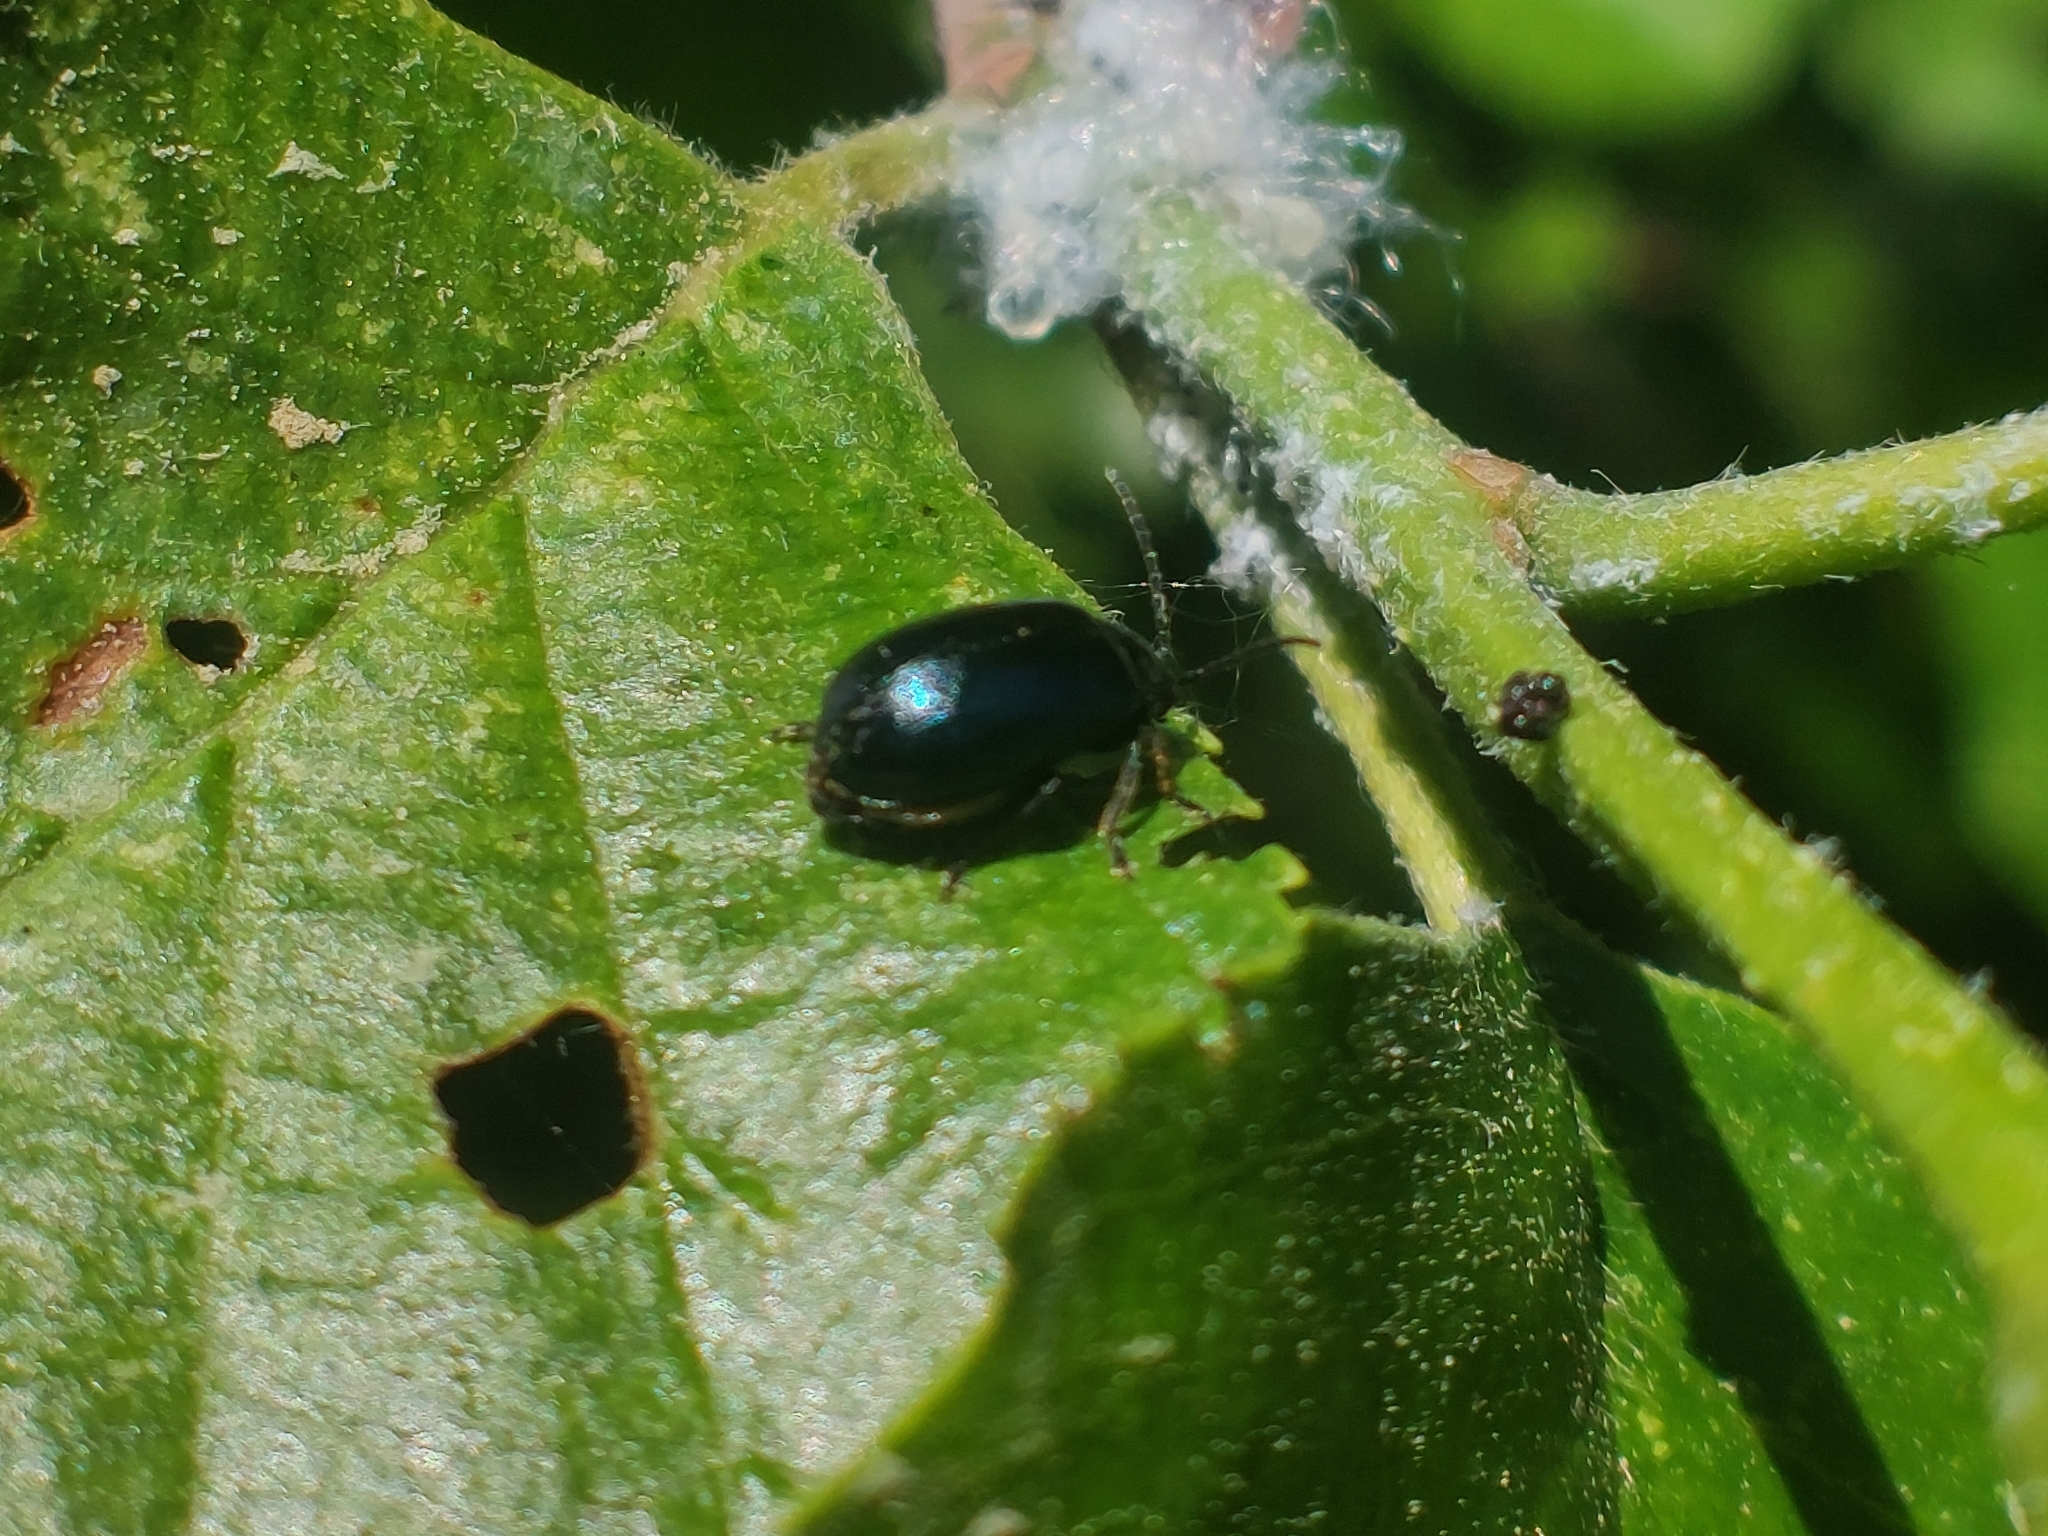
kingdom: Animalia
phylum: Arthropoda
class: Insecta
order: Coleoptera
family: Chrysomelidae
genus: Agelastica
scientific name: Agelastica alni
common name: Alder leaf beetle
